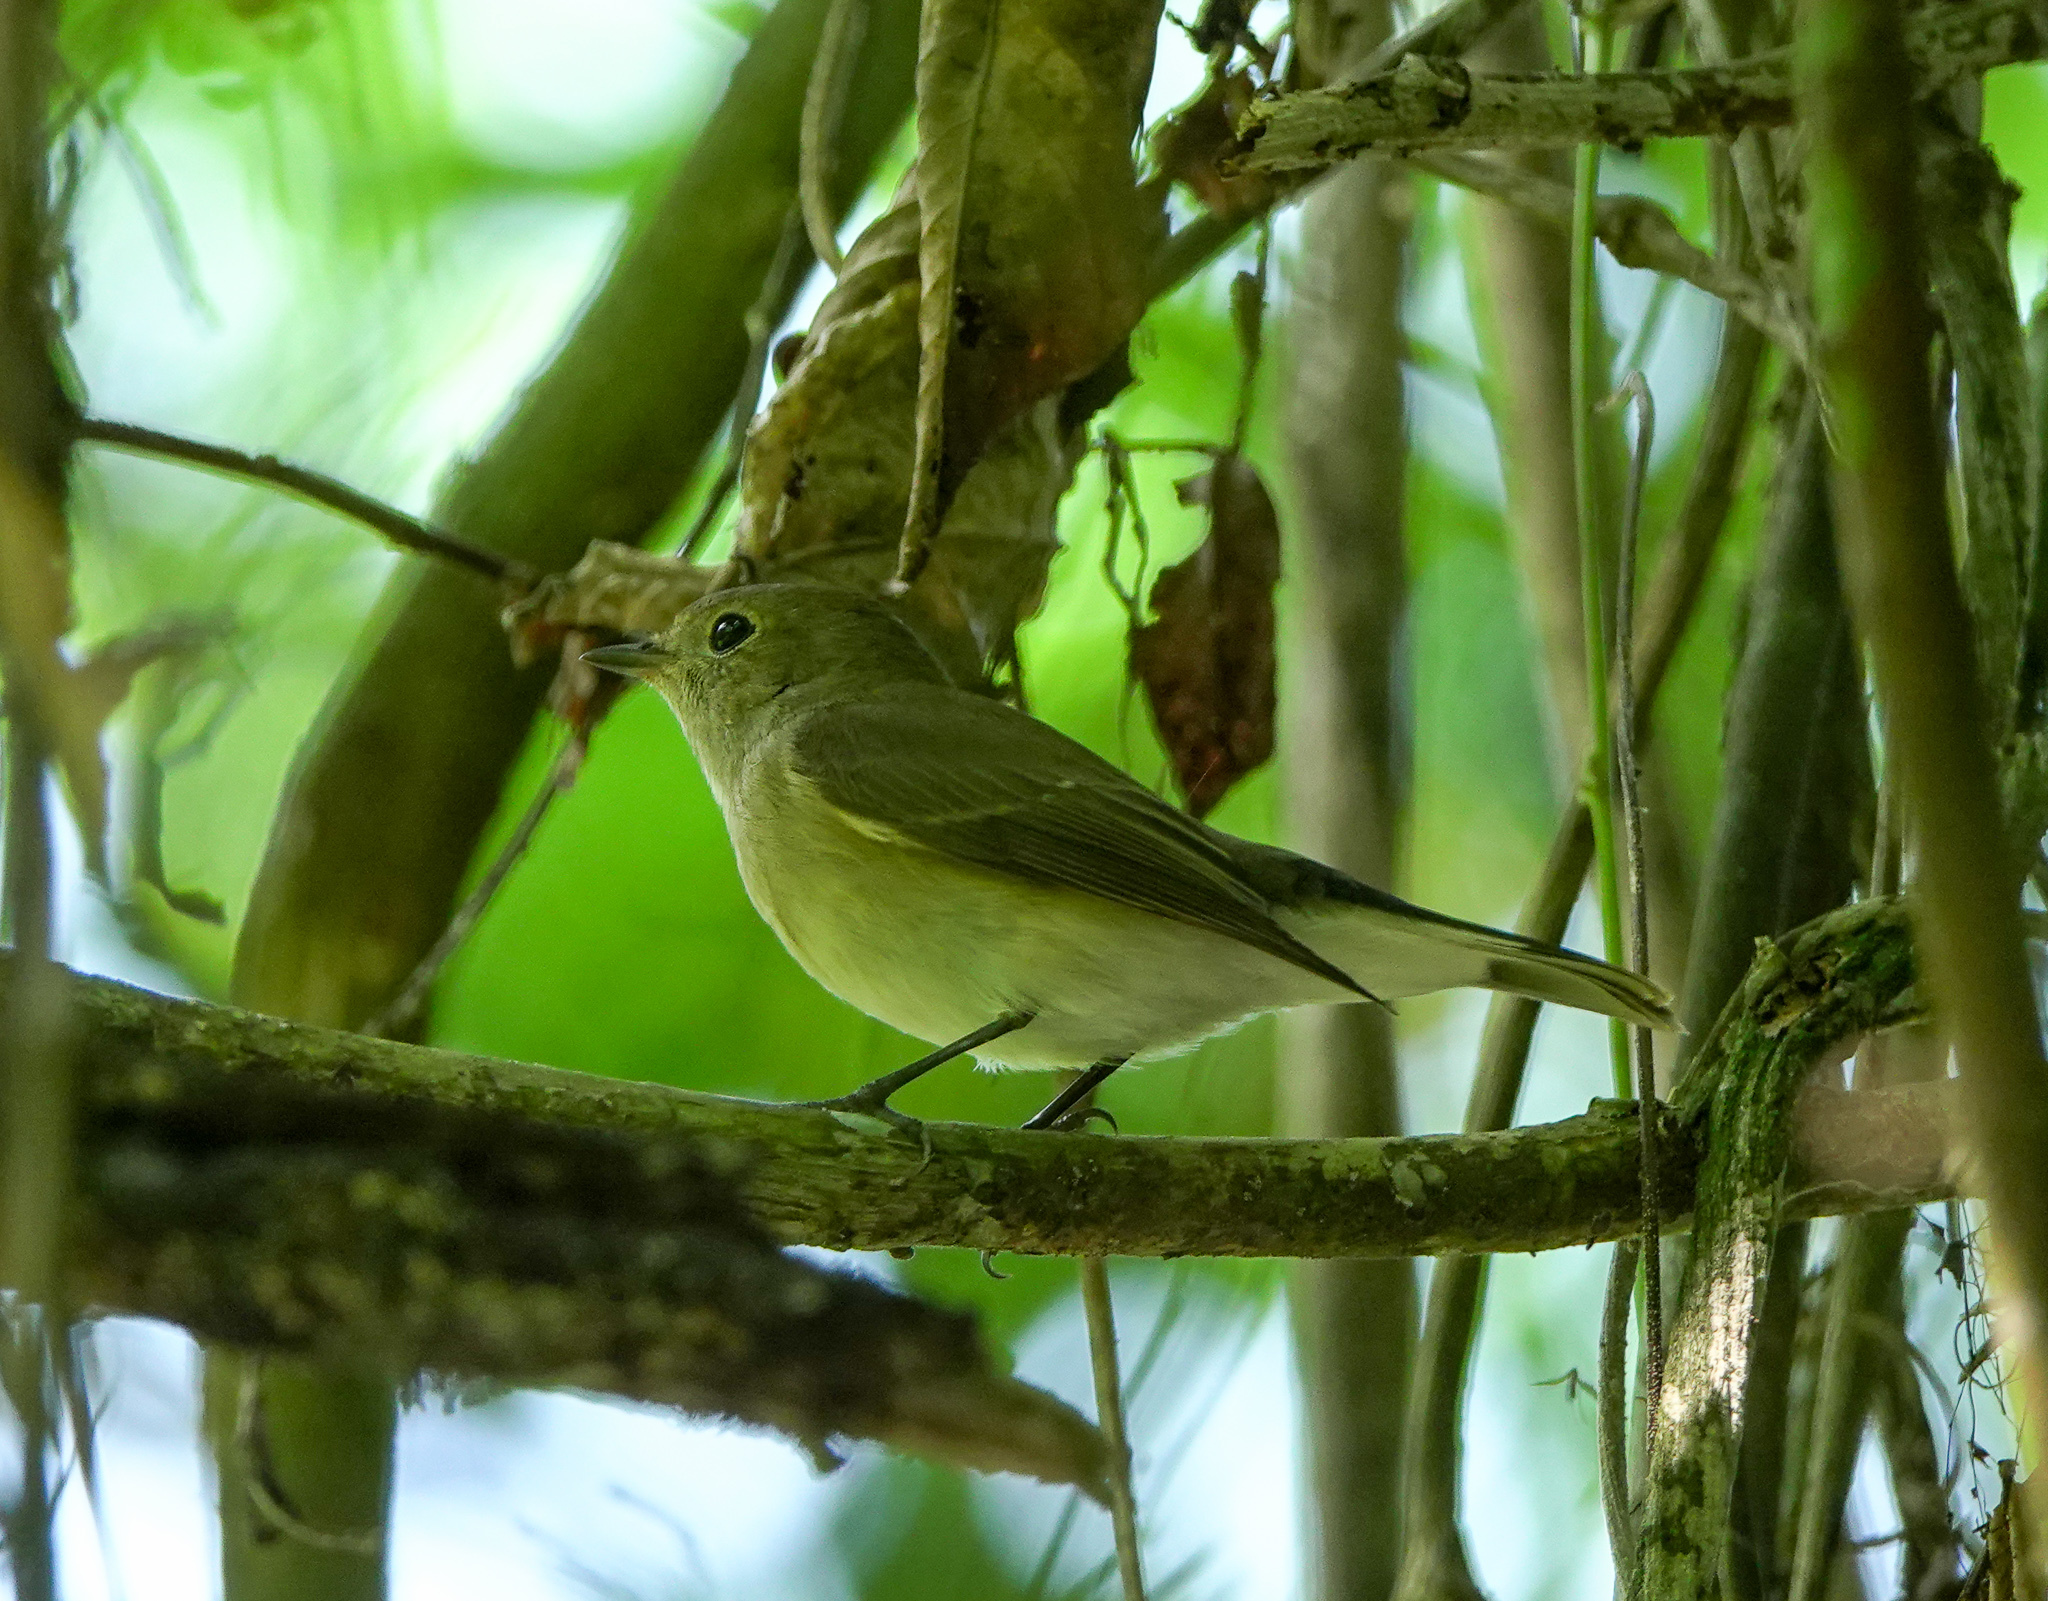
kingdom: Animalia
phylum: Chordata
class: Aves
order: Passeriformes
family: Muscicapidae
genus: Ficedula
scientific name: Ficedula albicilla
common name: Taiga flycatcher
